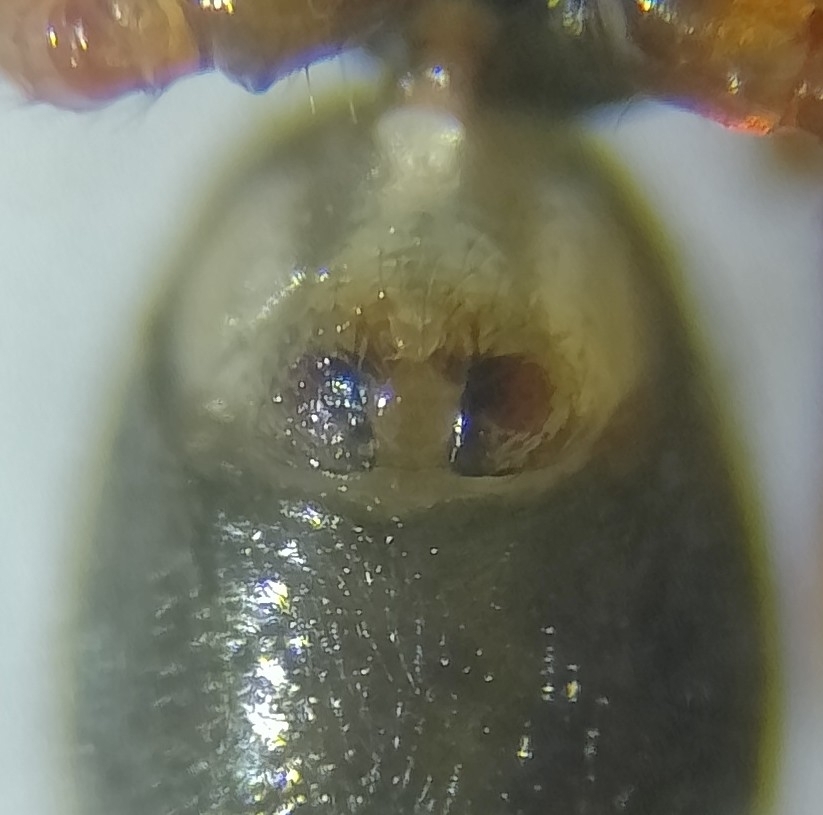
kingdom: Animalia
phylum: Arthropoda
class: Arachnida
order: Araneae
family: Linyphiidae
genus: Walckenaeria
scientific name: Walckenaeria unicornis
